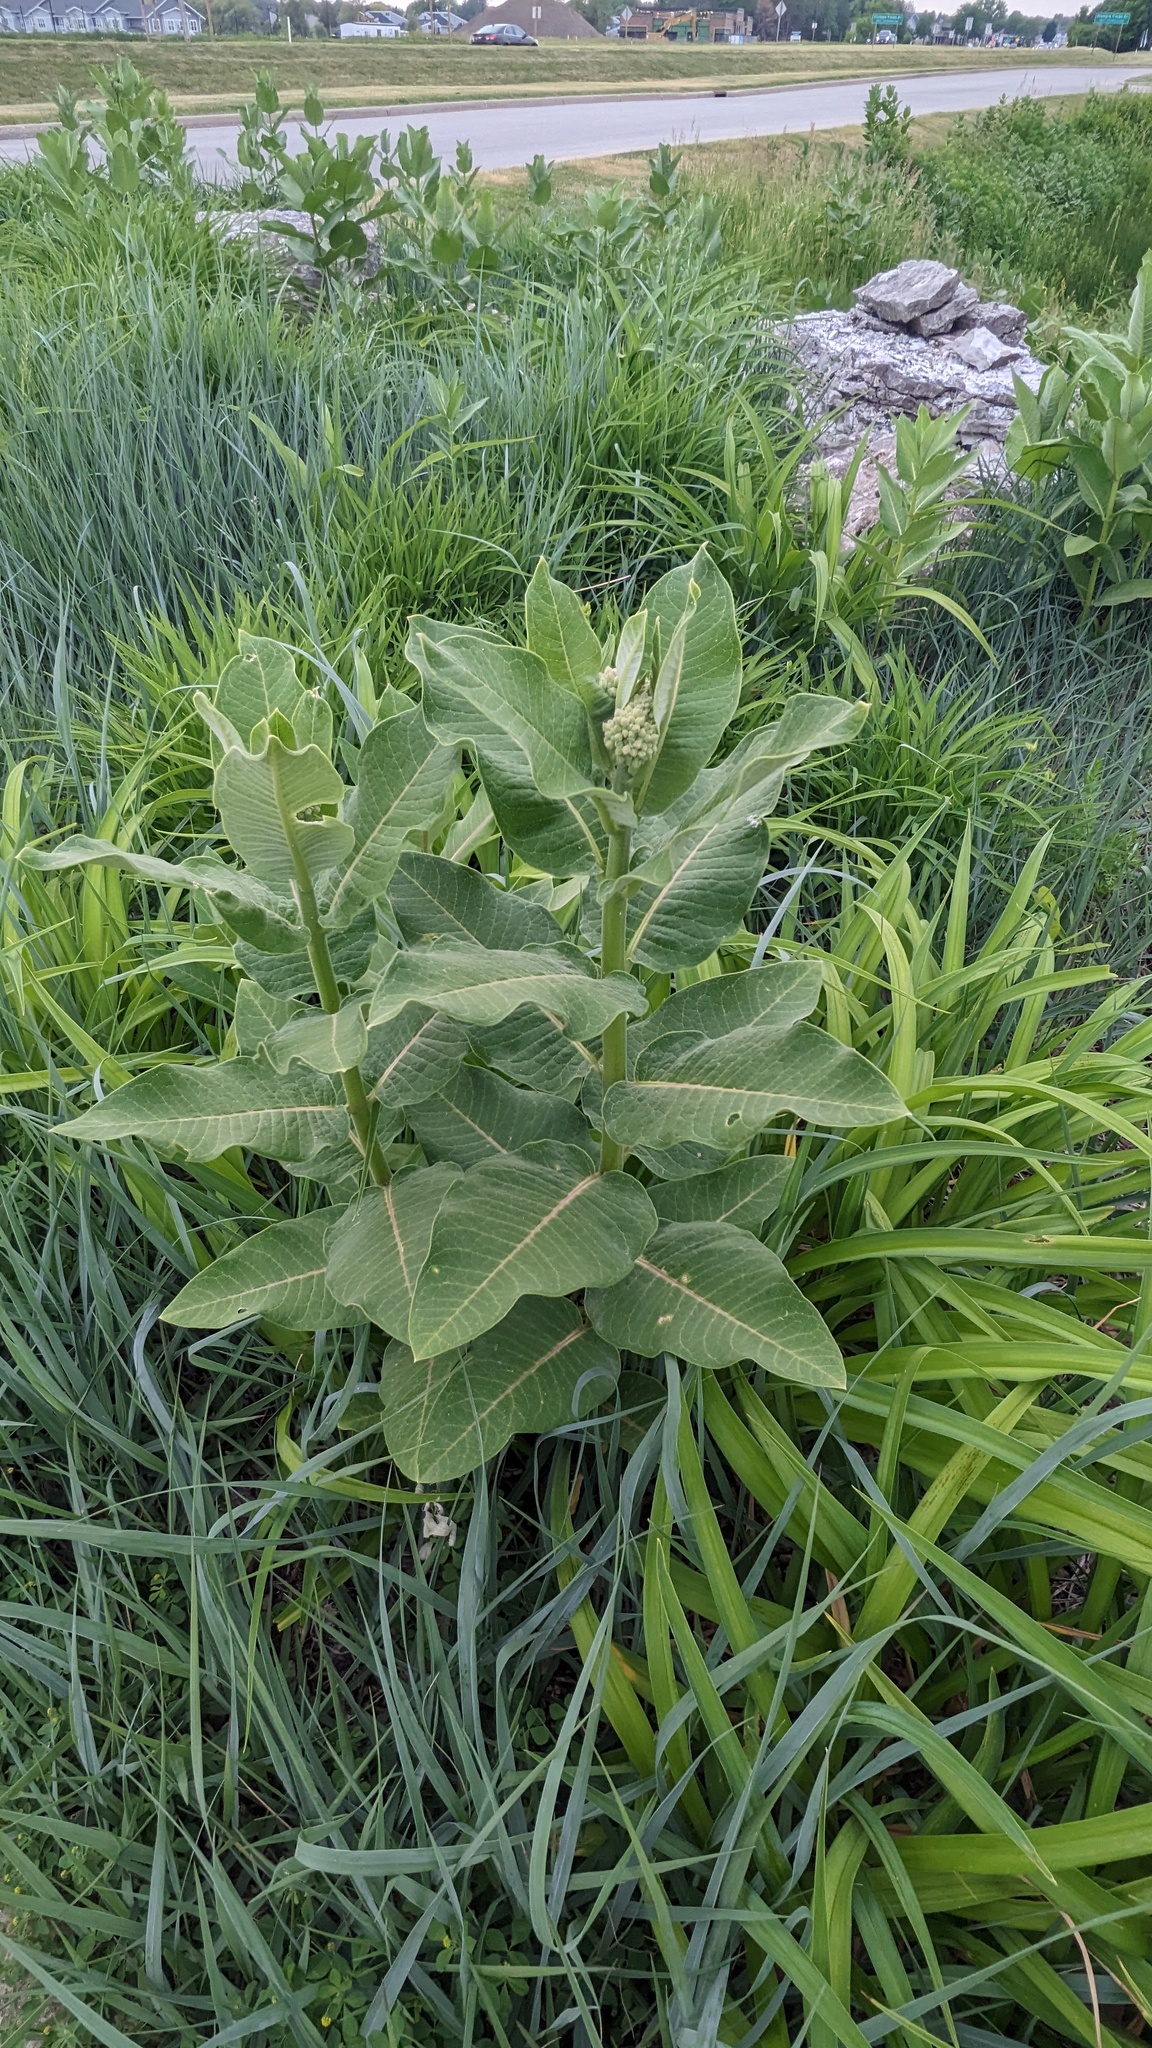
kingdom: Plantae
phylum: Tracheophyta
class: Magnoliopsida
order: Gentianales
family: Apocynaceae
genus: Asclepias
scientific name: Asclepias syriaca
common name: Common milkweed
